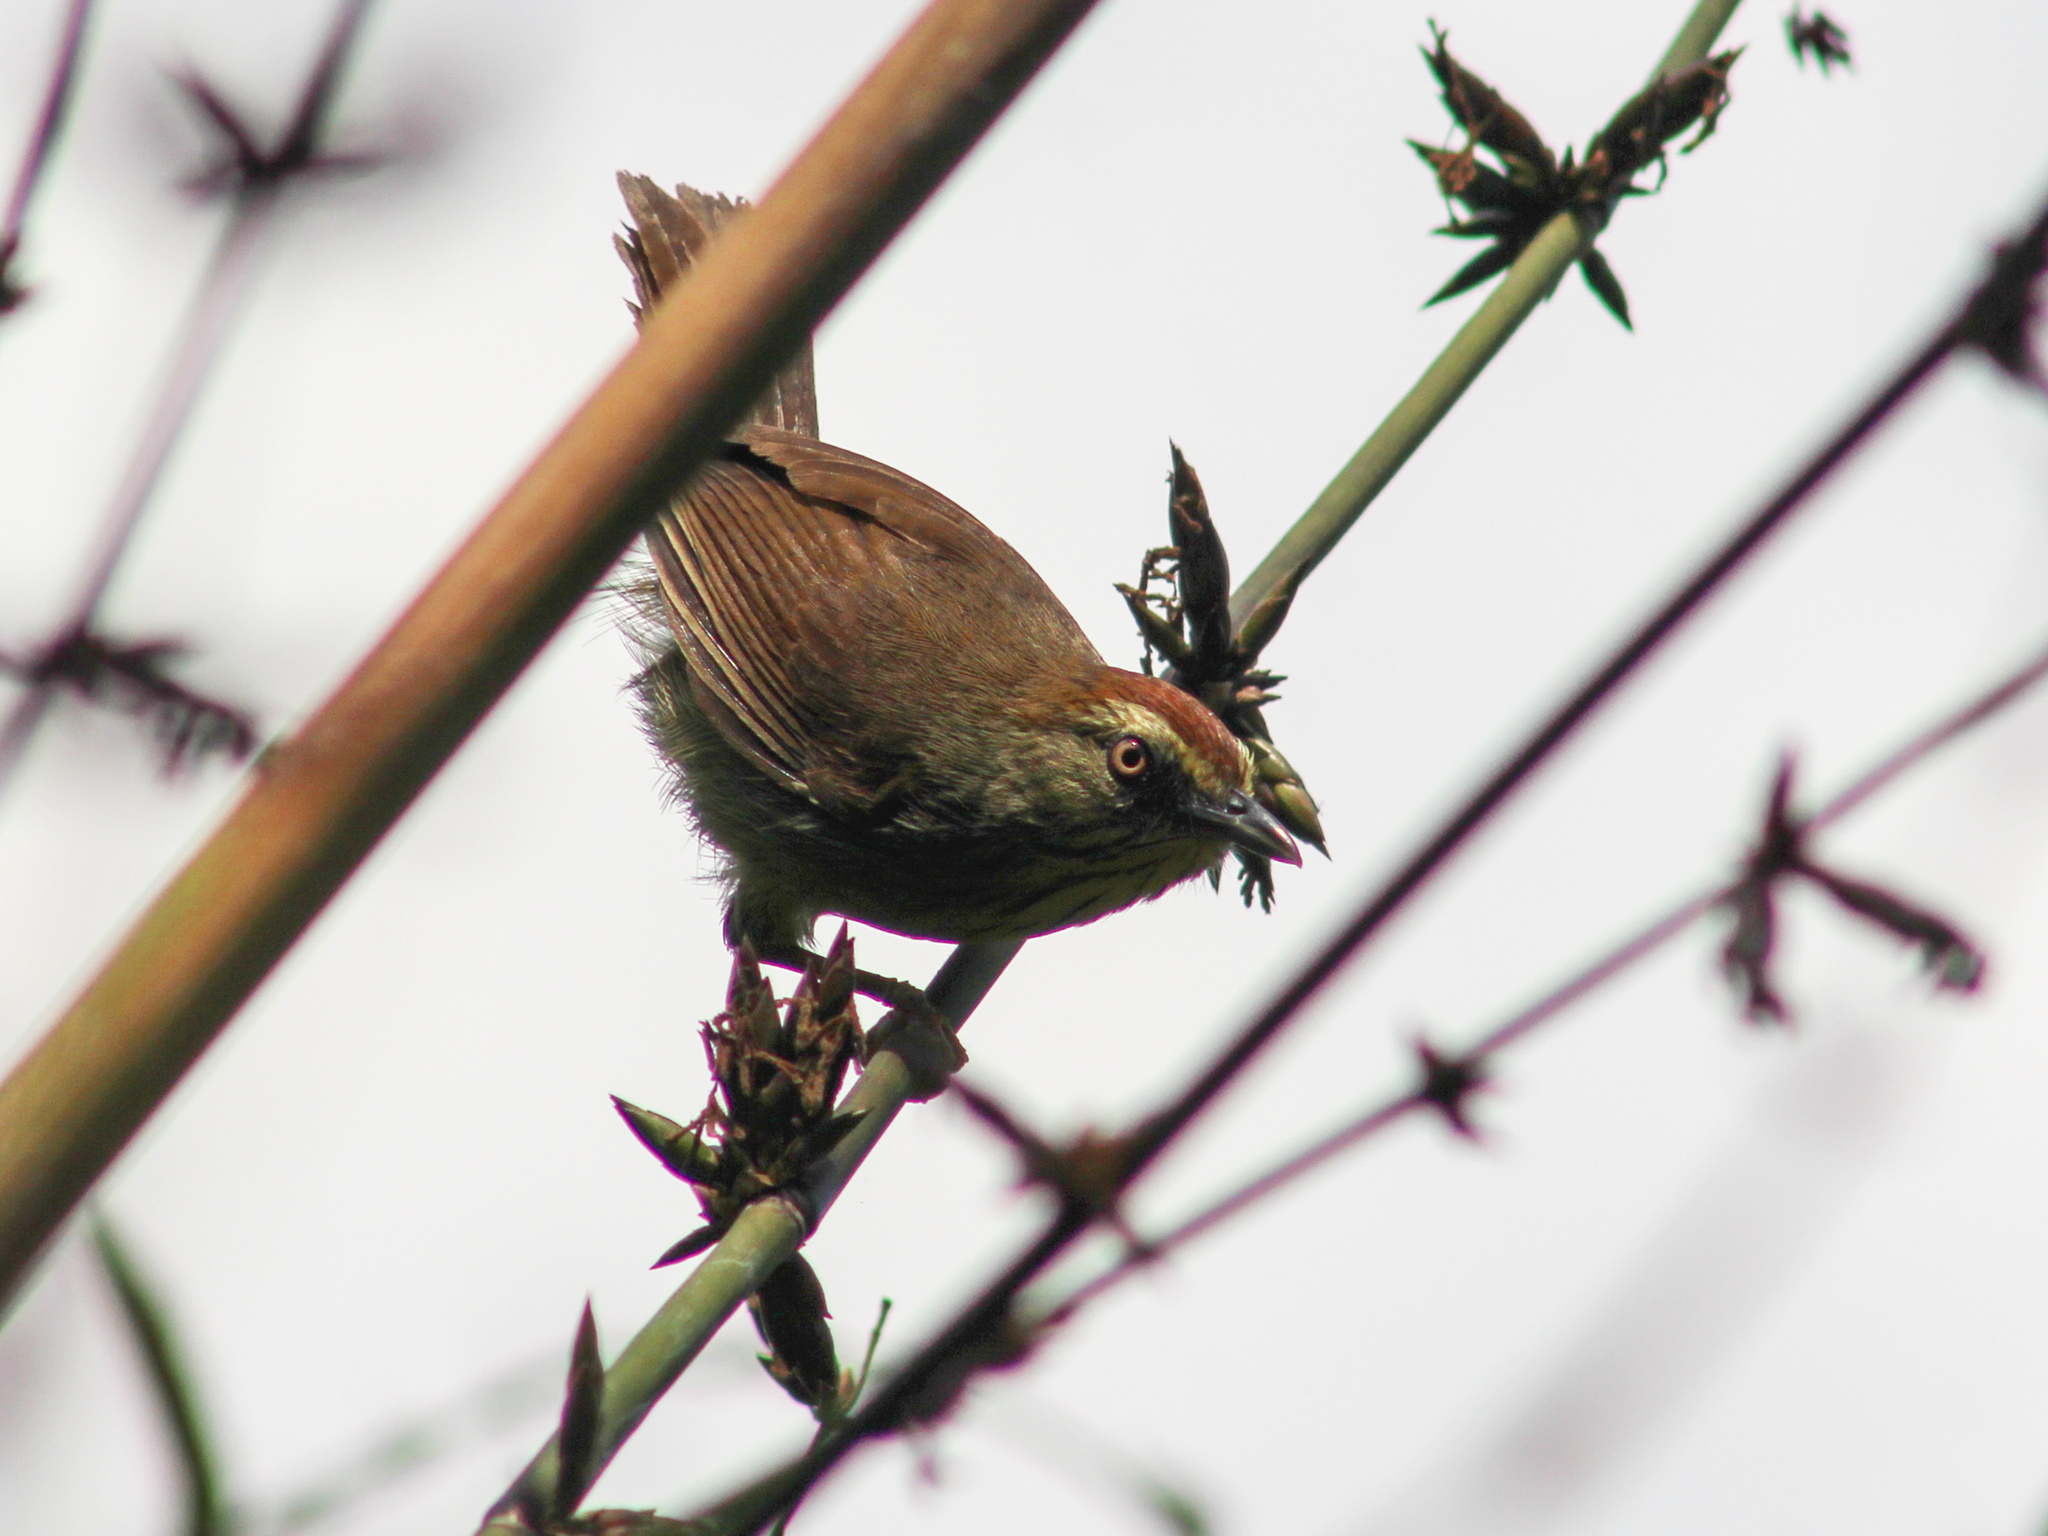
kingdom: Animalia
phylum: Chordata
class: Aves
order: Passeriformes
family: Timaliidae
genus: Macronus
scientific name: Macronus gularis
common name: Striped tit-babbler
